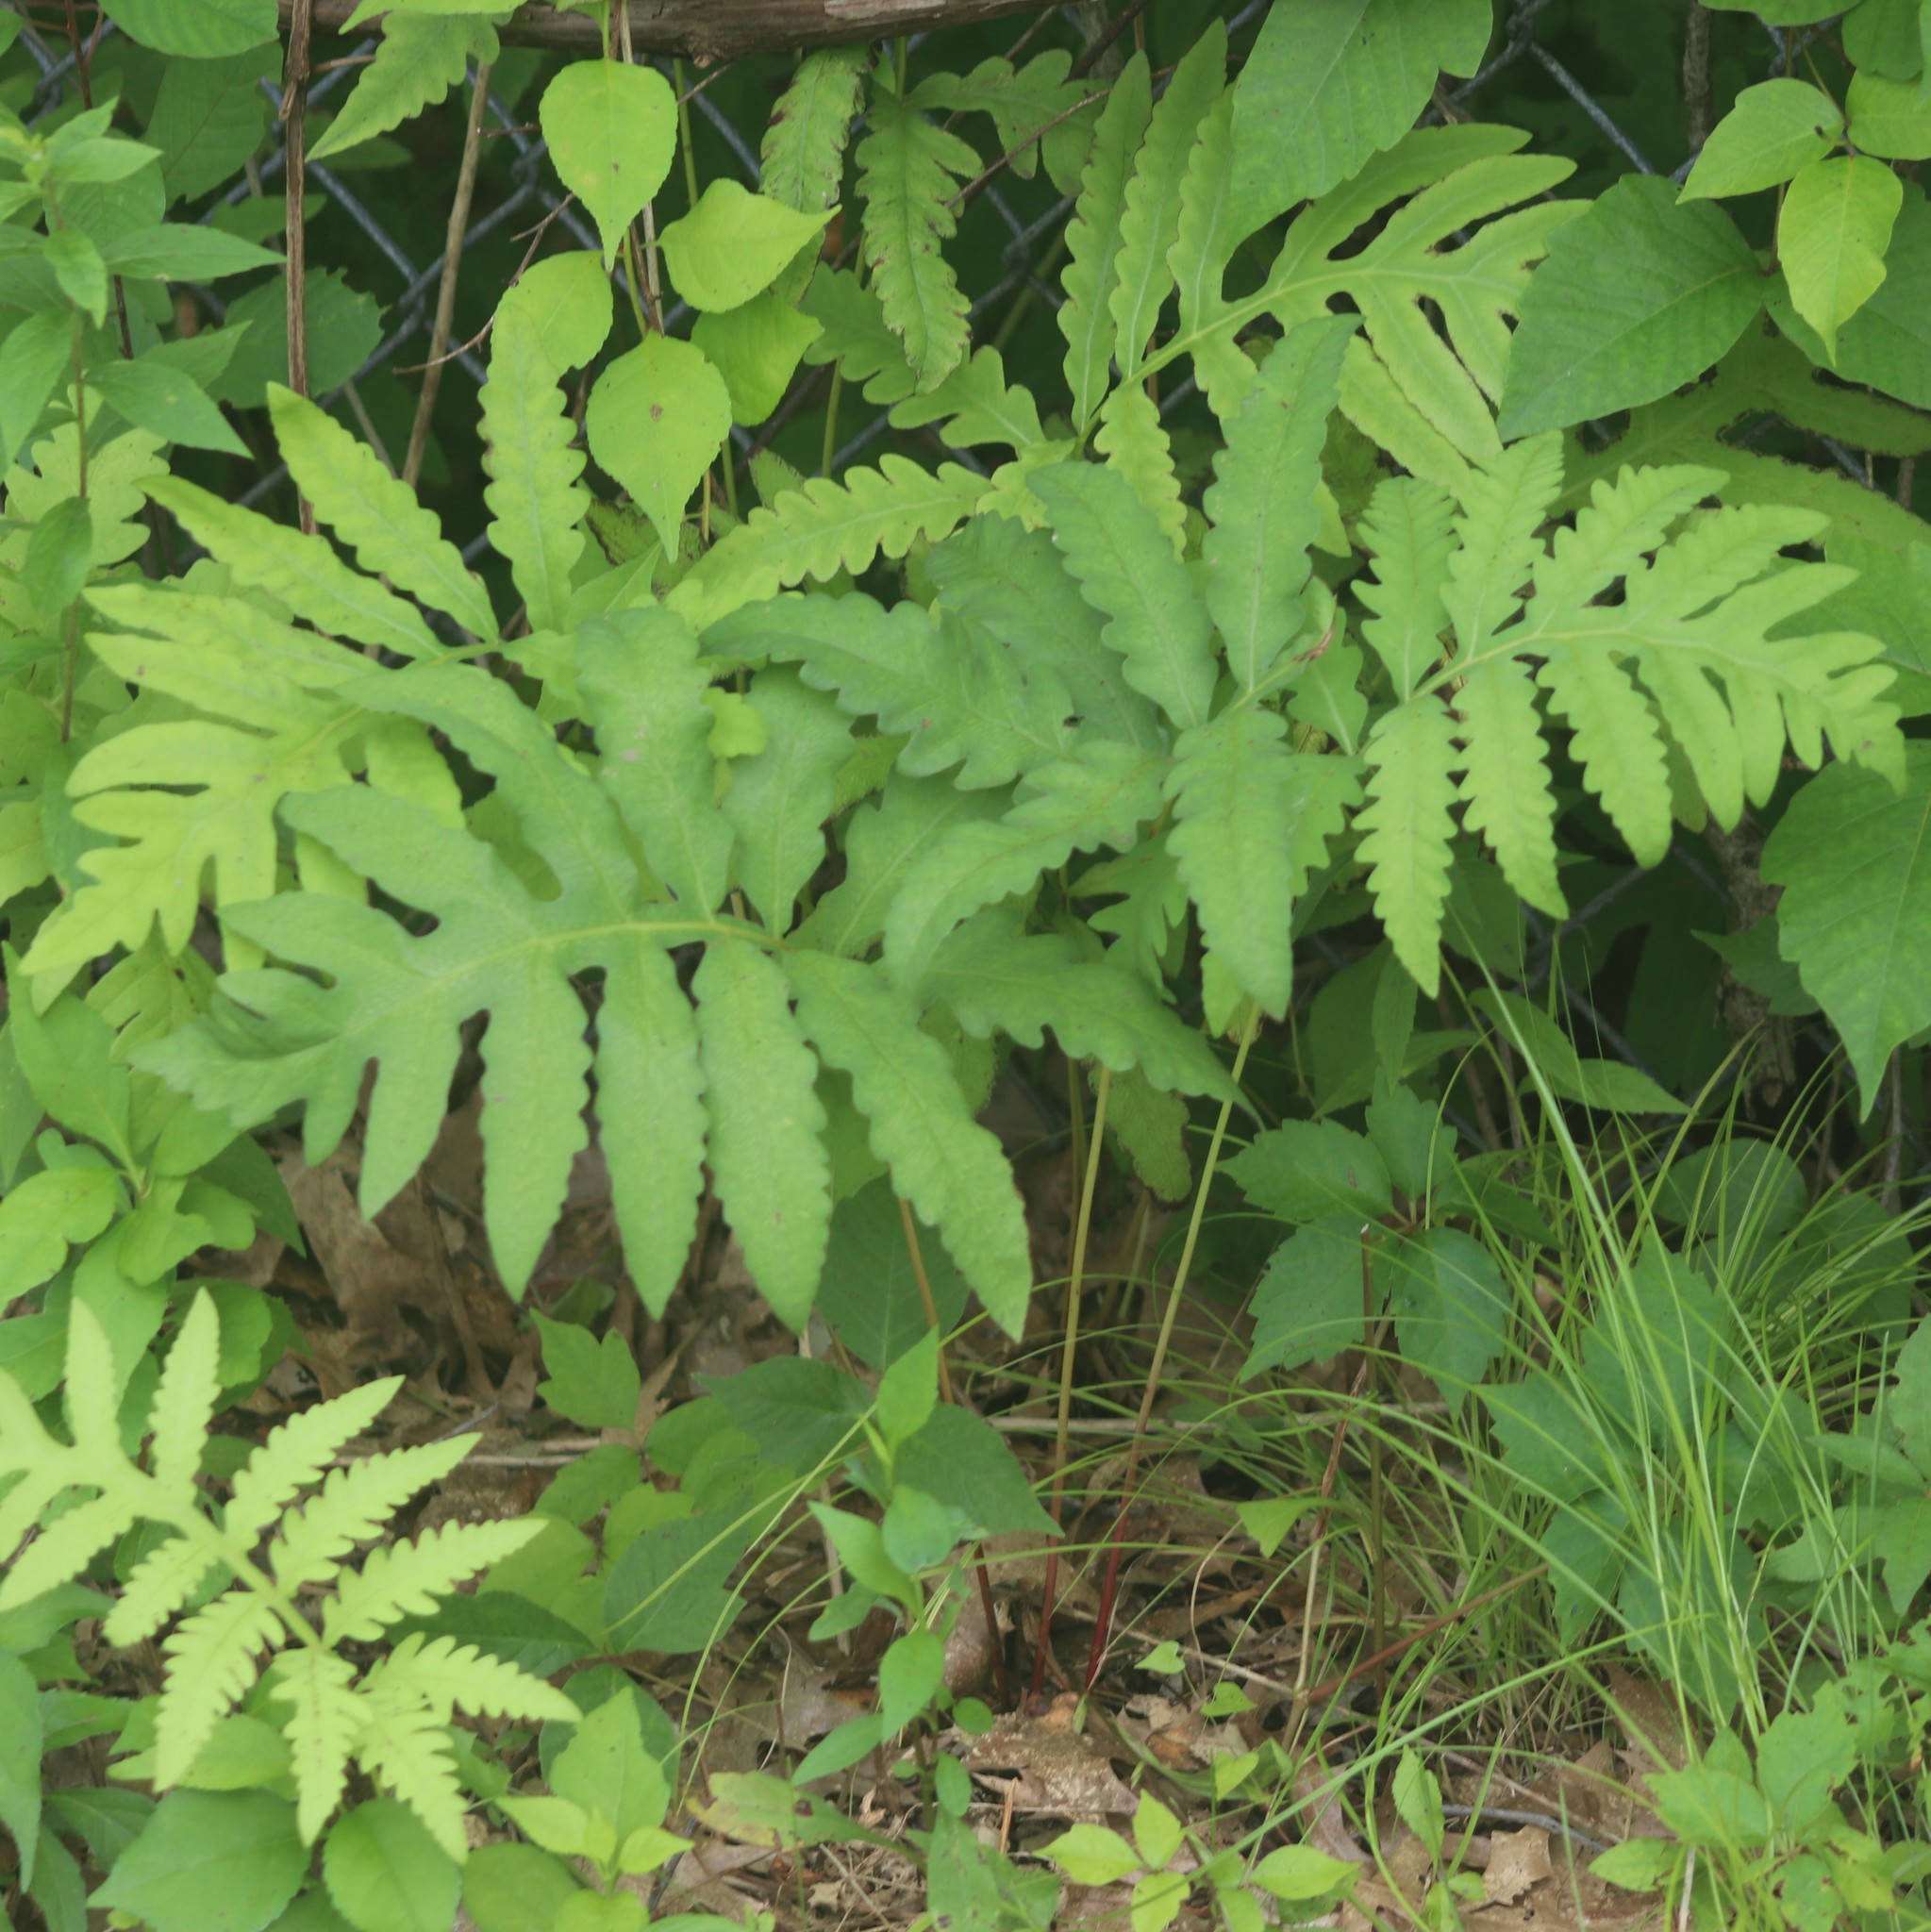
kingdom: Plantae
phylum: Tracheophyta
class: Polypodiopsida
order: Polypodiales
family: Onocleaceae
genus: Onoclea
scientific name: Onoclea sensibilis
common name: Sensitive fern
